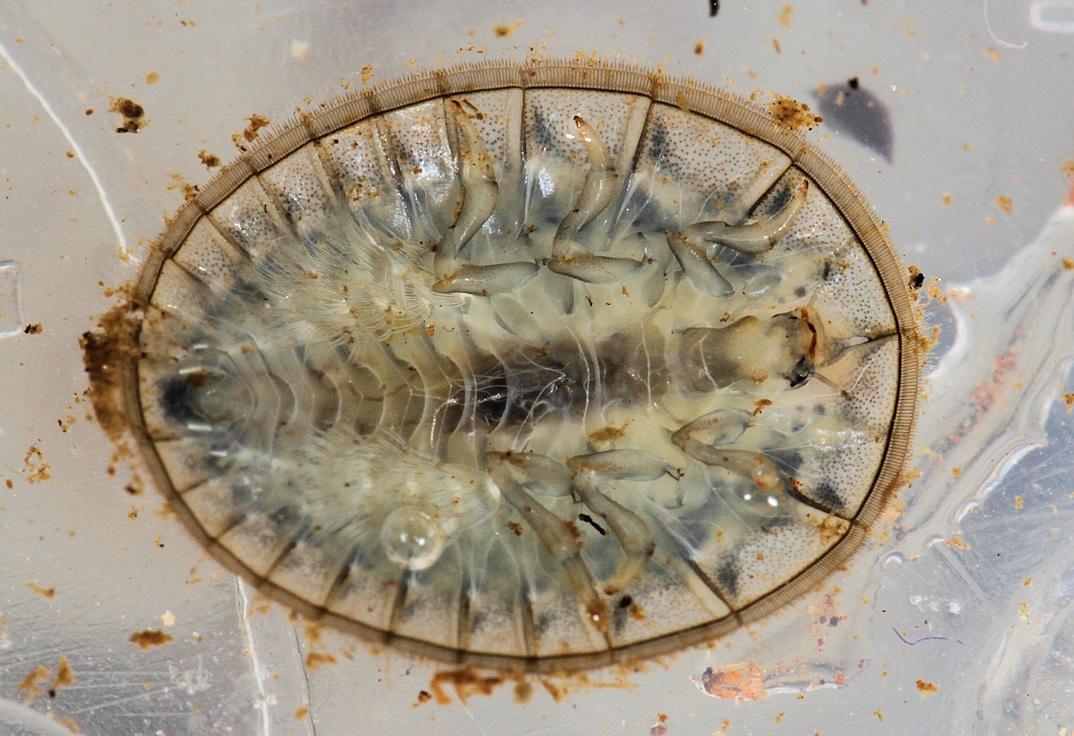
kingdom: Animalia
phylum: Arthropoda
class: Insecta
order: Coleoptera
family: Psephenidae
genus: Afrobrianax
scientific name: Afrobrianax
